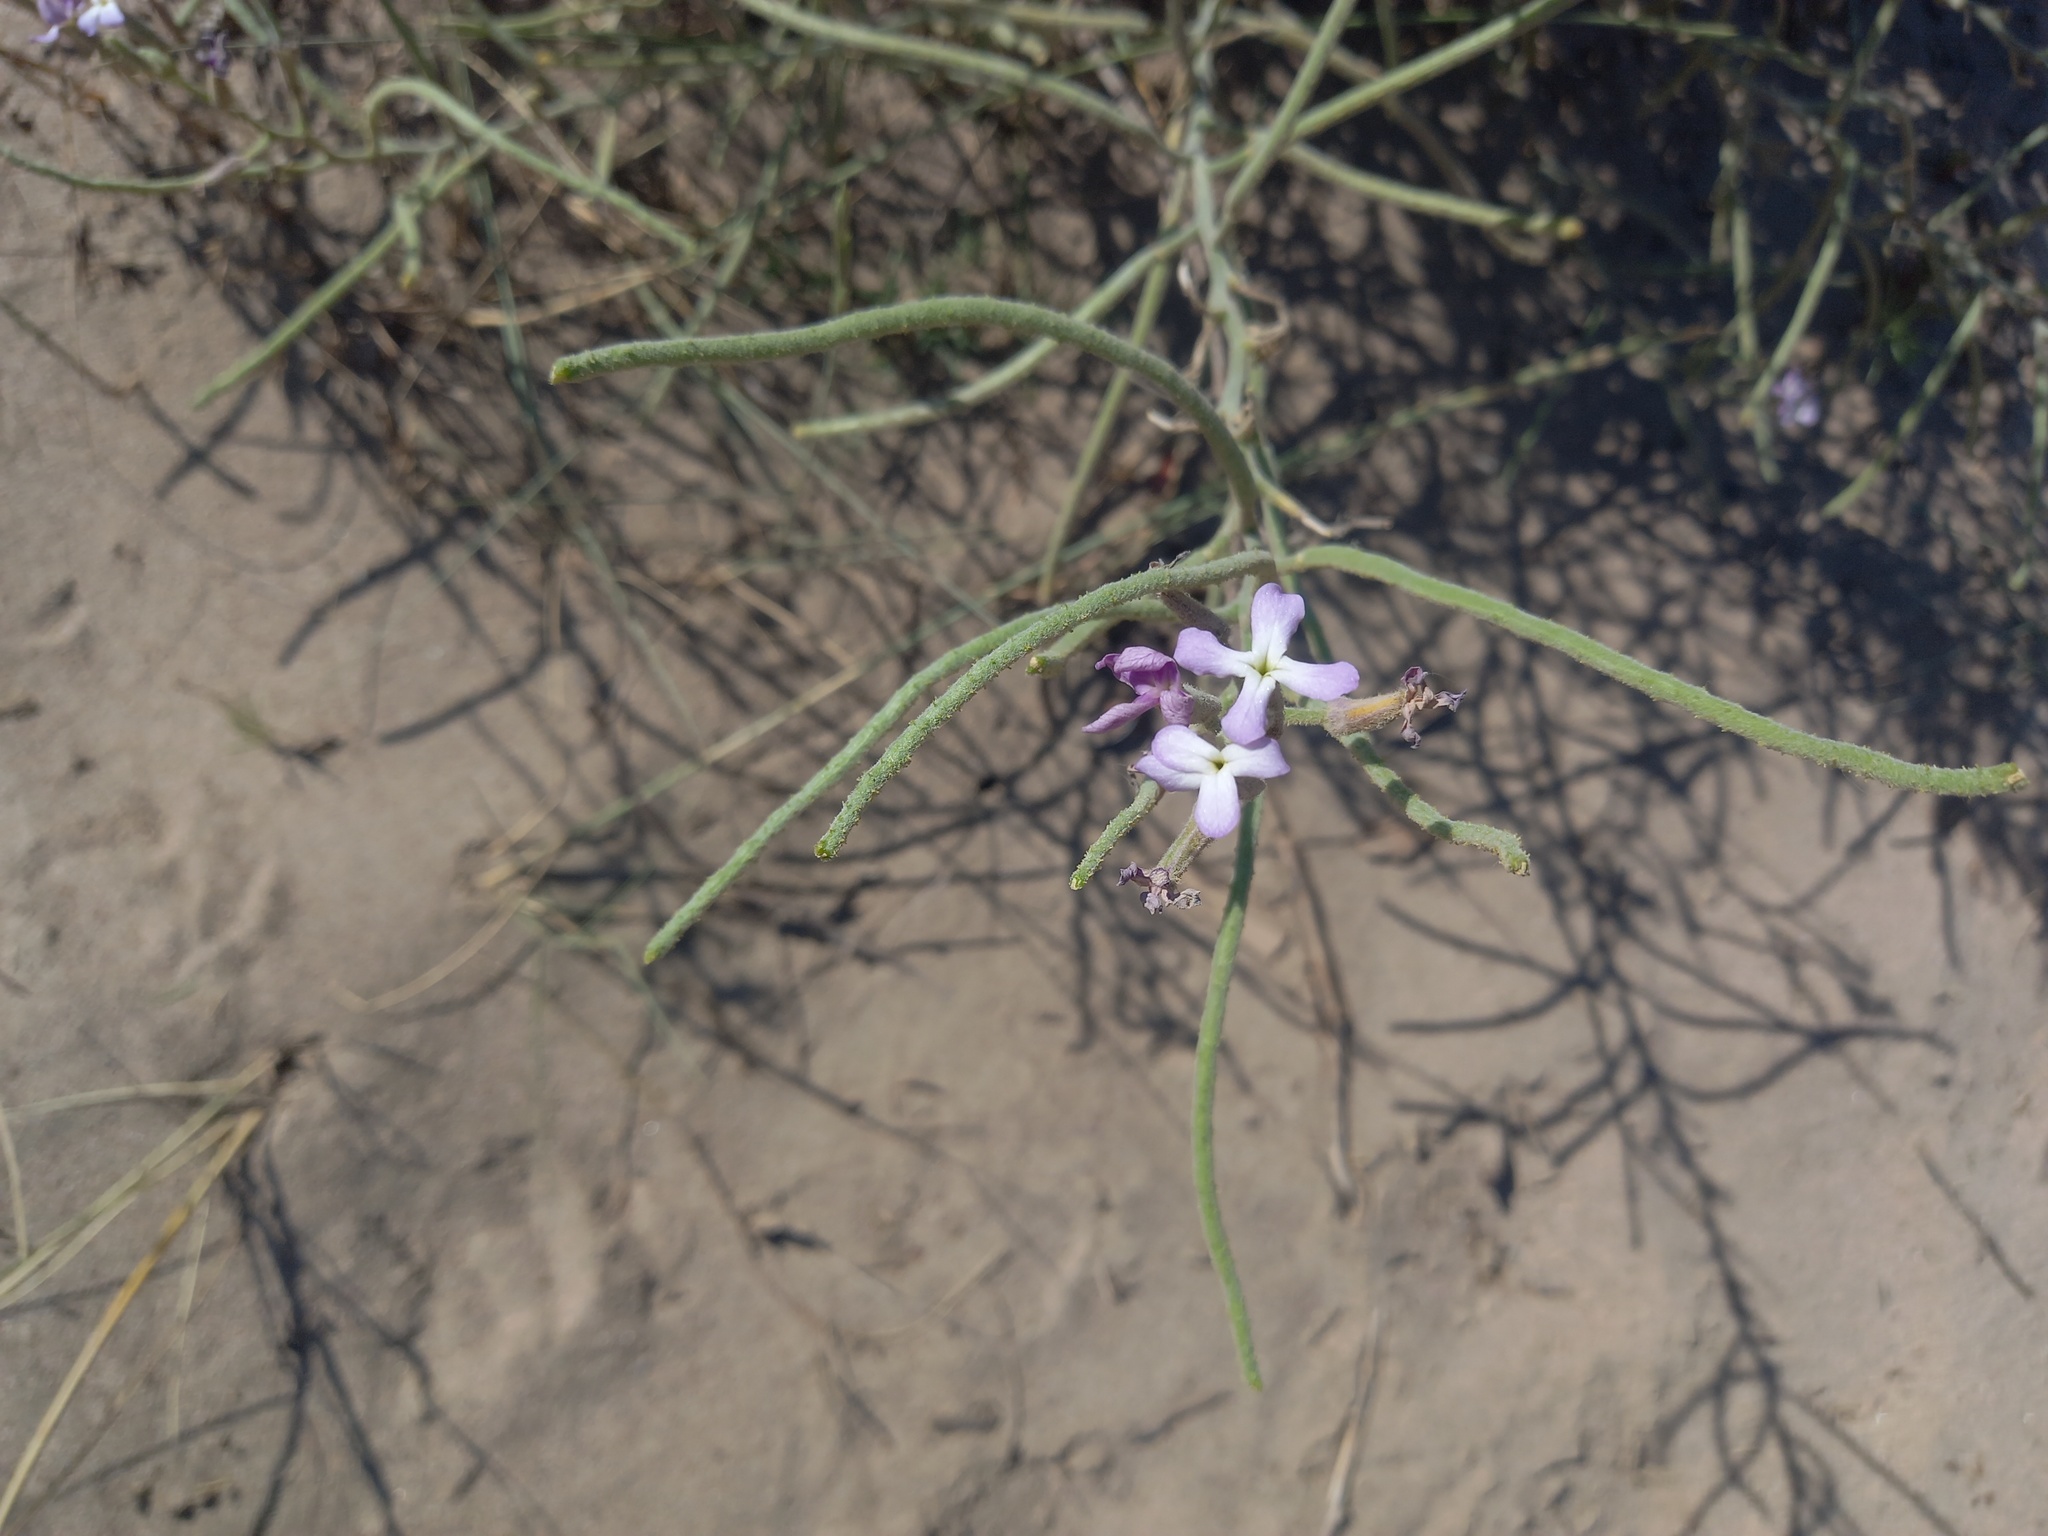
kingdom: Plantae
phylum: Tracheophyta
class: Magnoliopsida
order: Brassicales
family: Brassicaceae
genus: Matthiola
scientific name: Matthiola sinuata
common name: Sea stock
